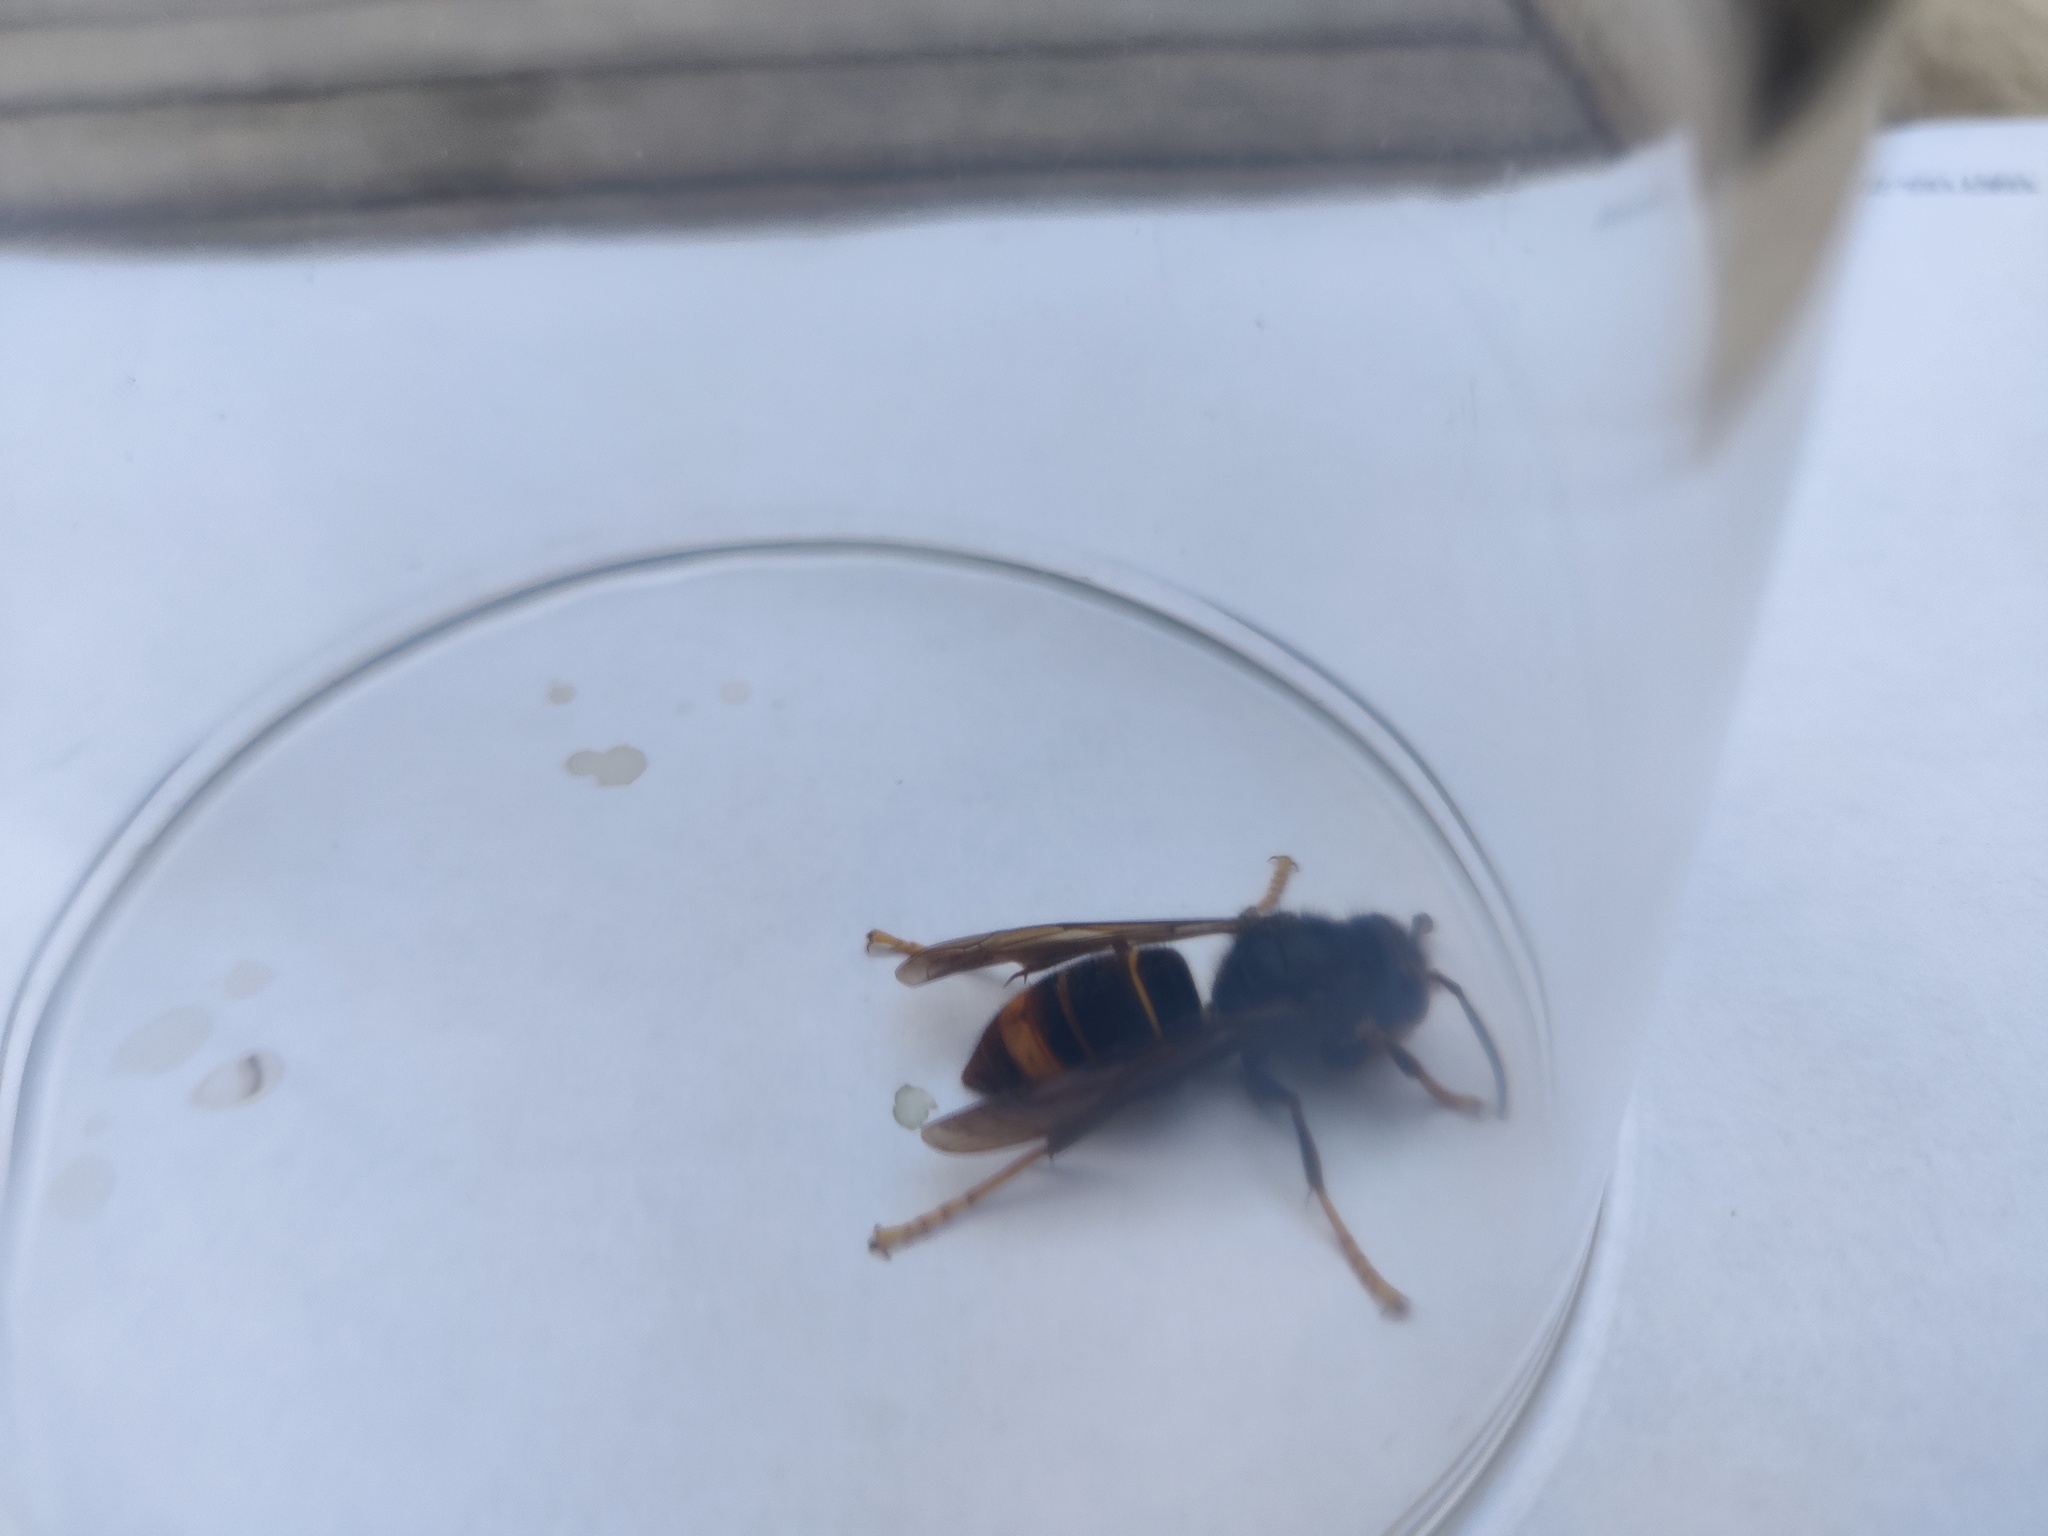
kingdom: Animalia
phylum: Arthropoda
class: Insecta
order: Hymenoptera
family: Vespidae
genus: Vespa
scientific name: Vespa velutina
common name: Asian hornet
